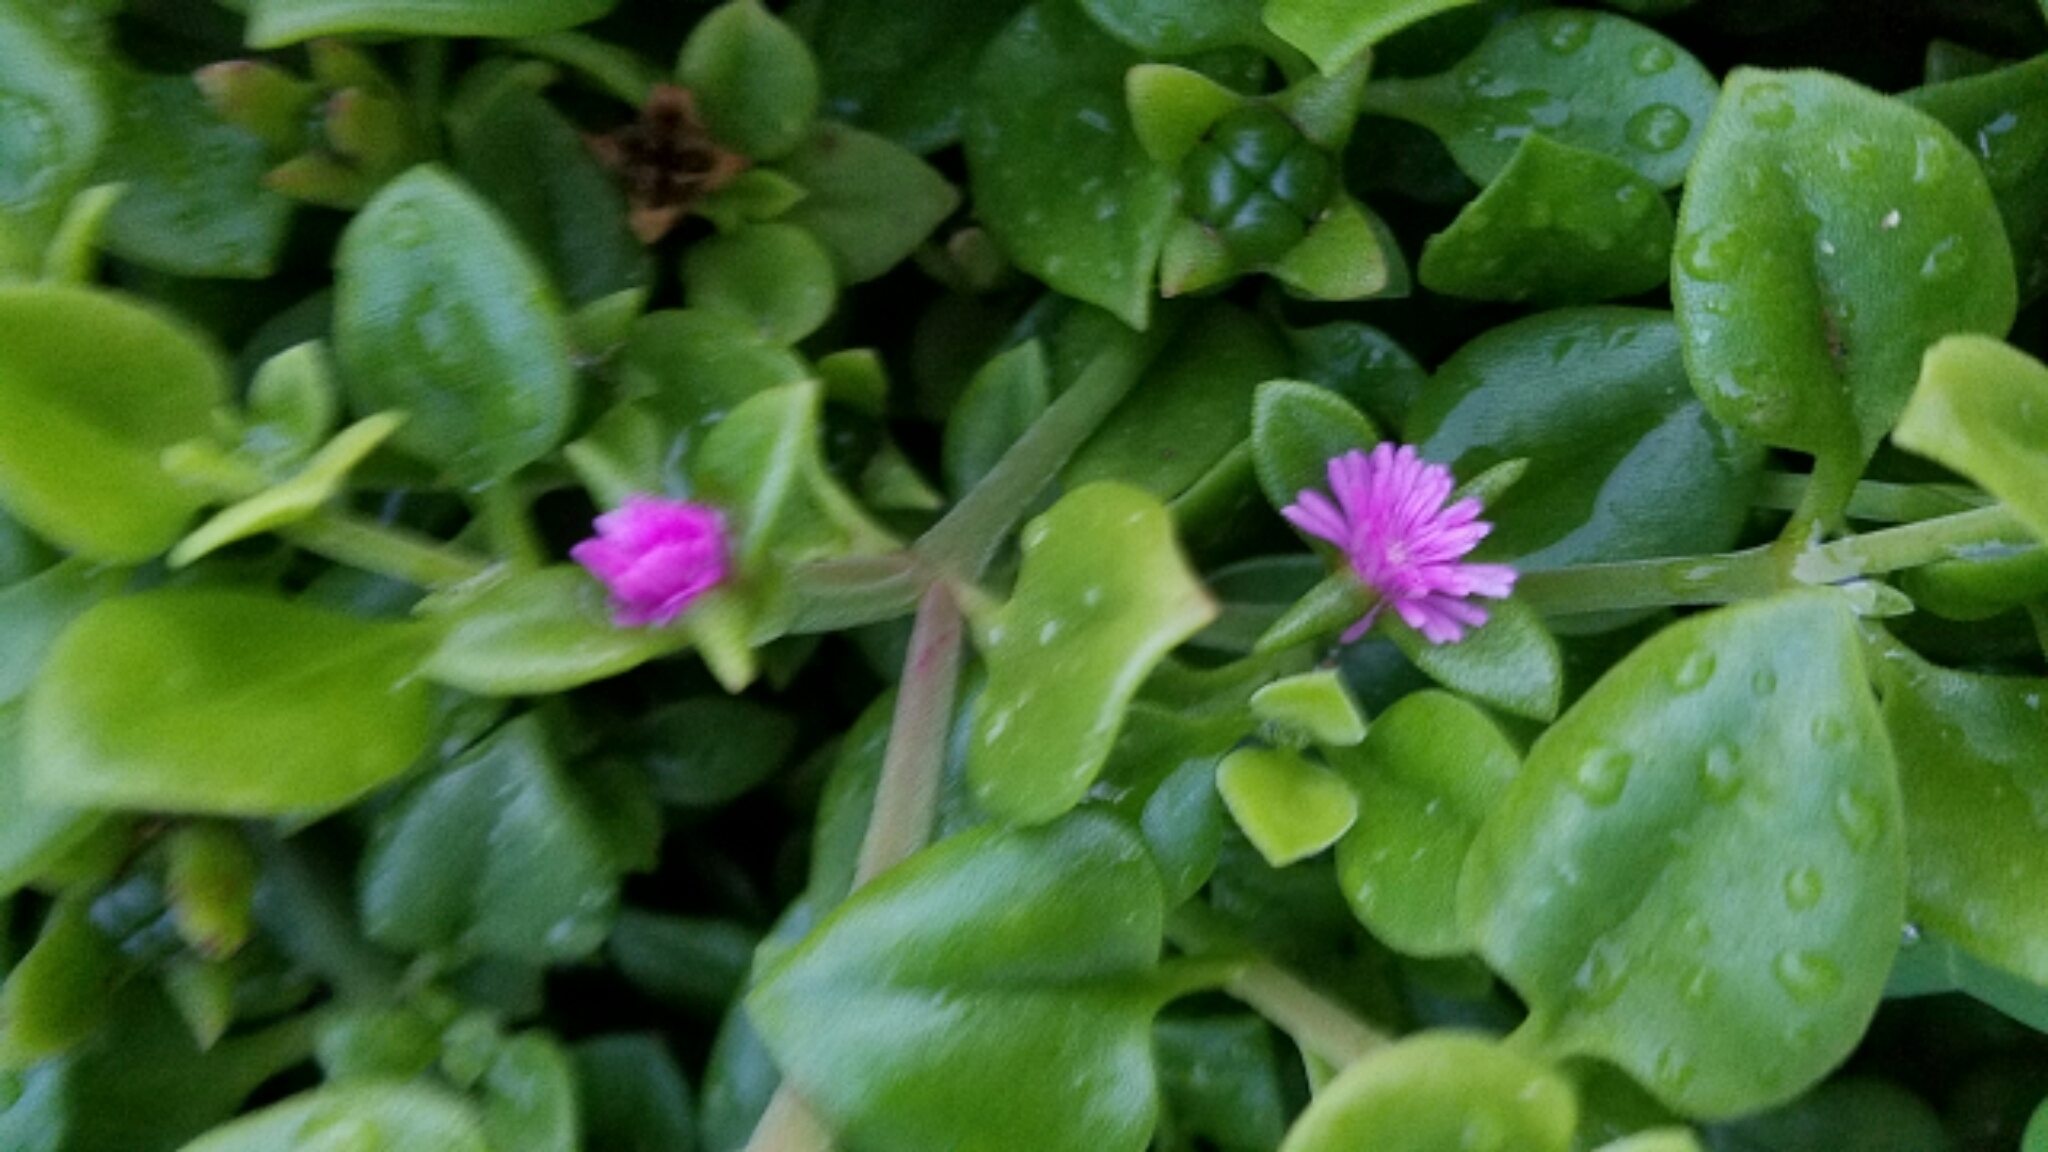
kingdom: Plantae
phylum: Tracheophyta
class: Magnoliopsida
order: Caryophyllales
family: Aizoaceae
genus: Mesembryanthemum
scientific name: Mesembryanthemum cordifolium
